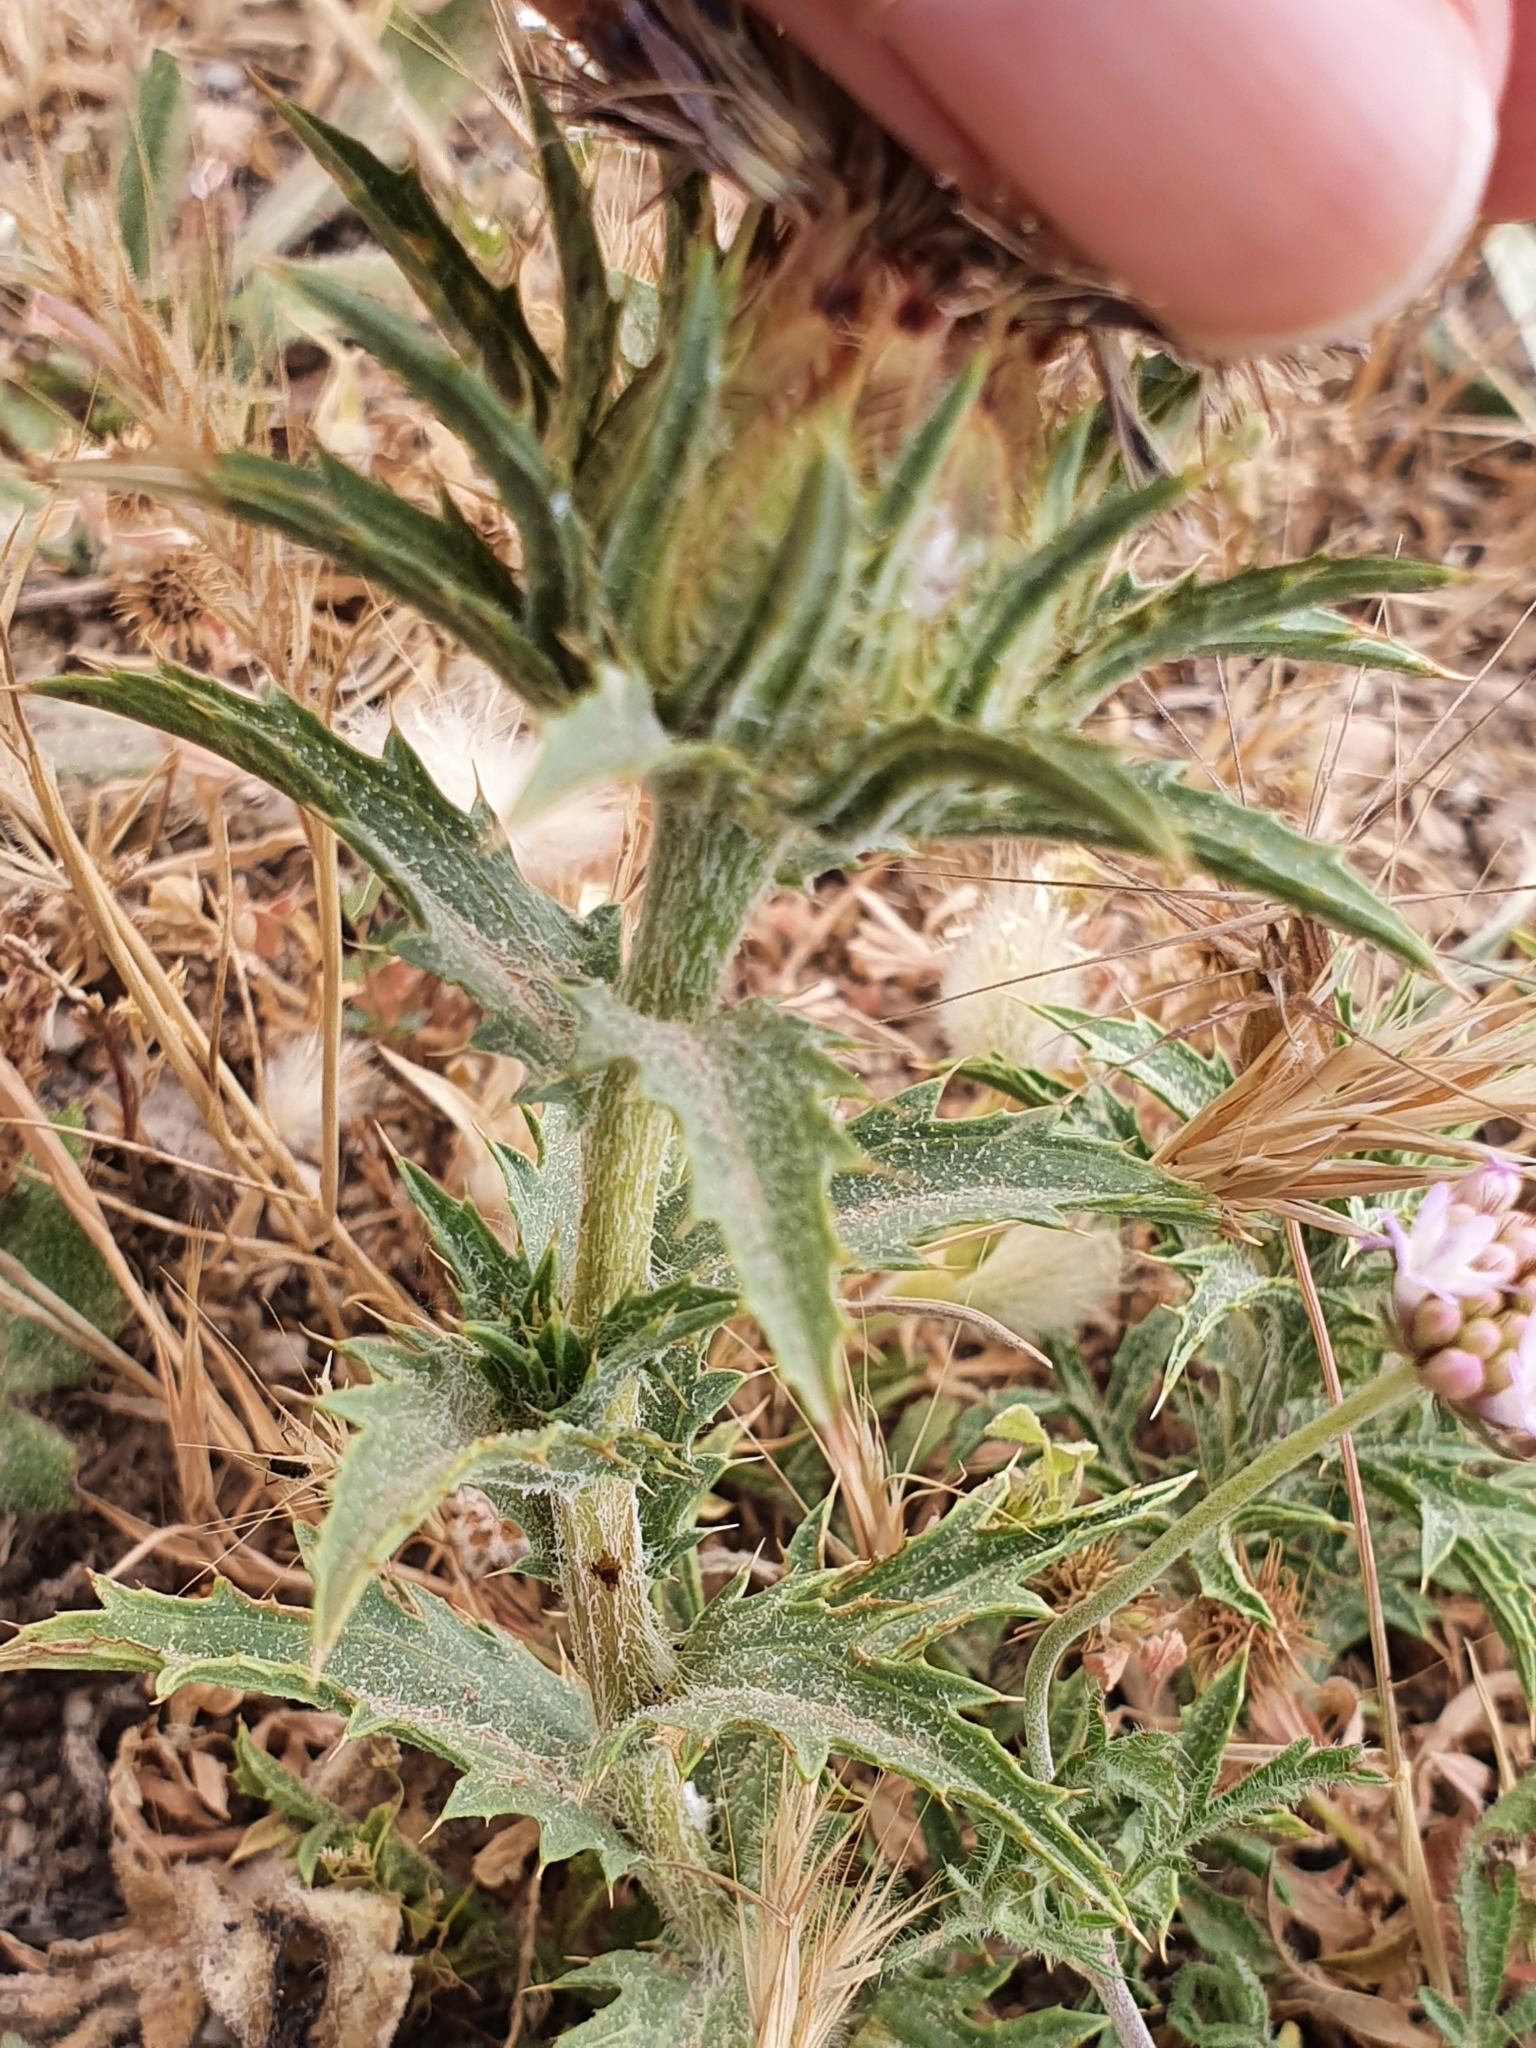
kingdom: Plantae
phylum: Tracheophyta
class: Magnoliopsida
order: Asterales
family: Asteraceae
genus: Carduncellus
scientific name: Carduncellus caeruleus
